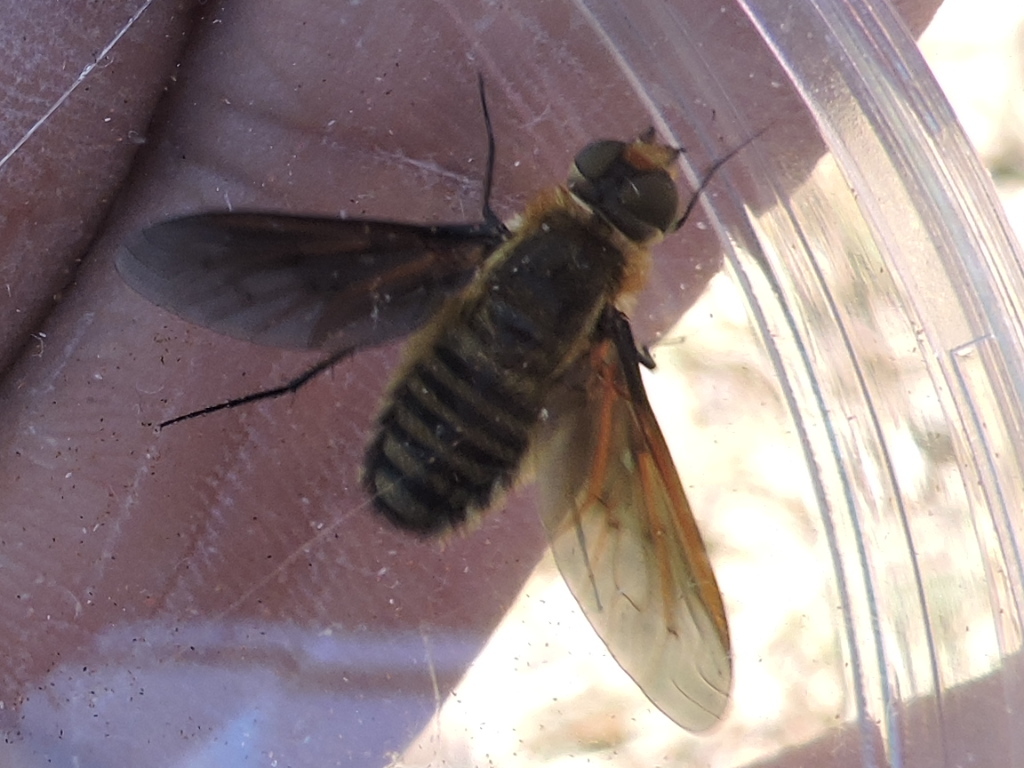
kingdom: Animalia
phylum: Arthropoda
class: Insecta
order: Diptera
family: Bombyliidae
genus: Poecilanthrax
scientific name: Poecilanthrax lucifer
